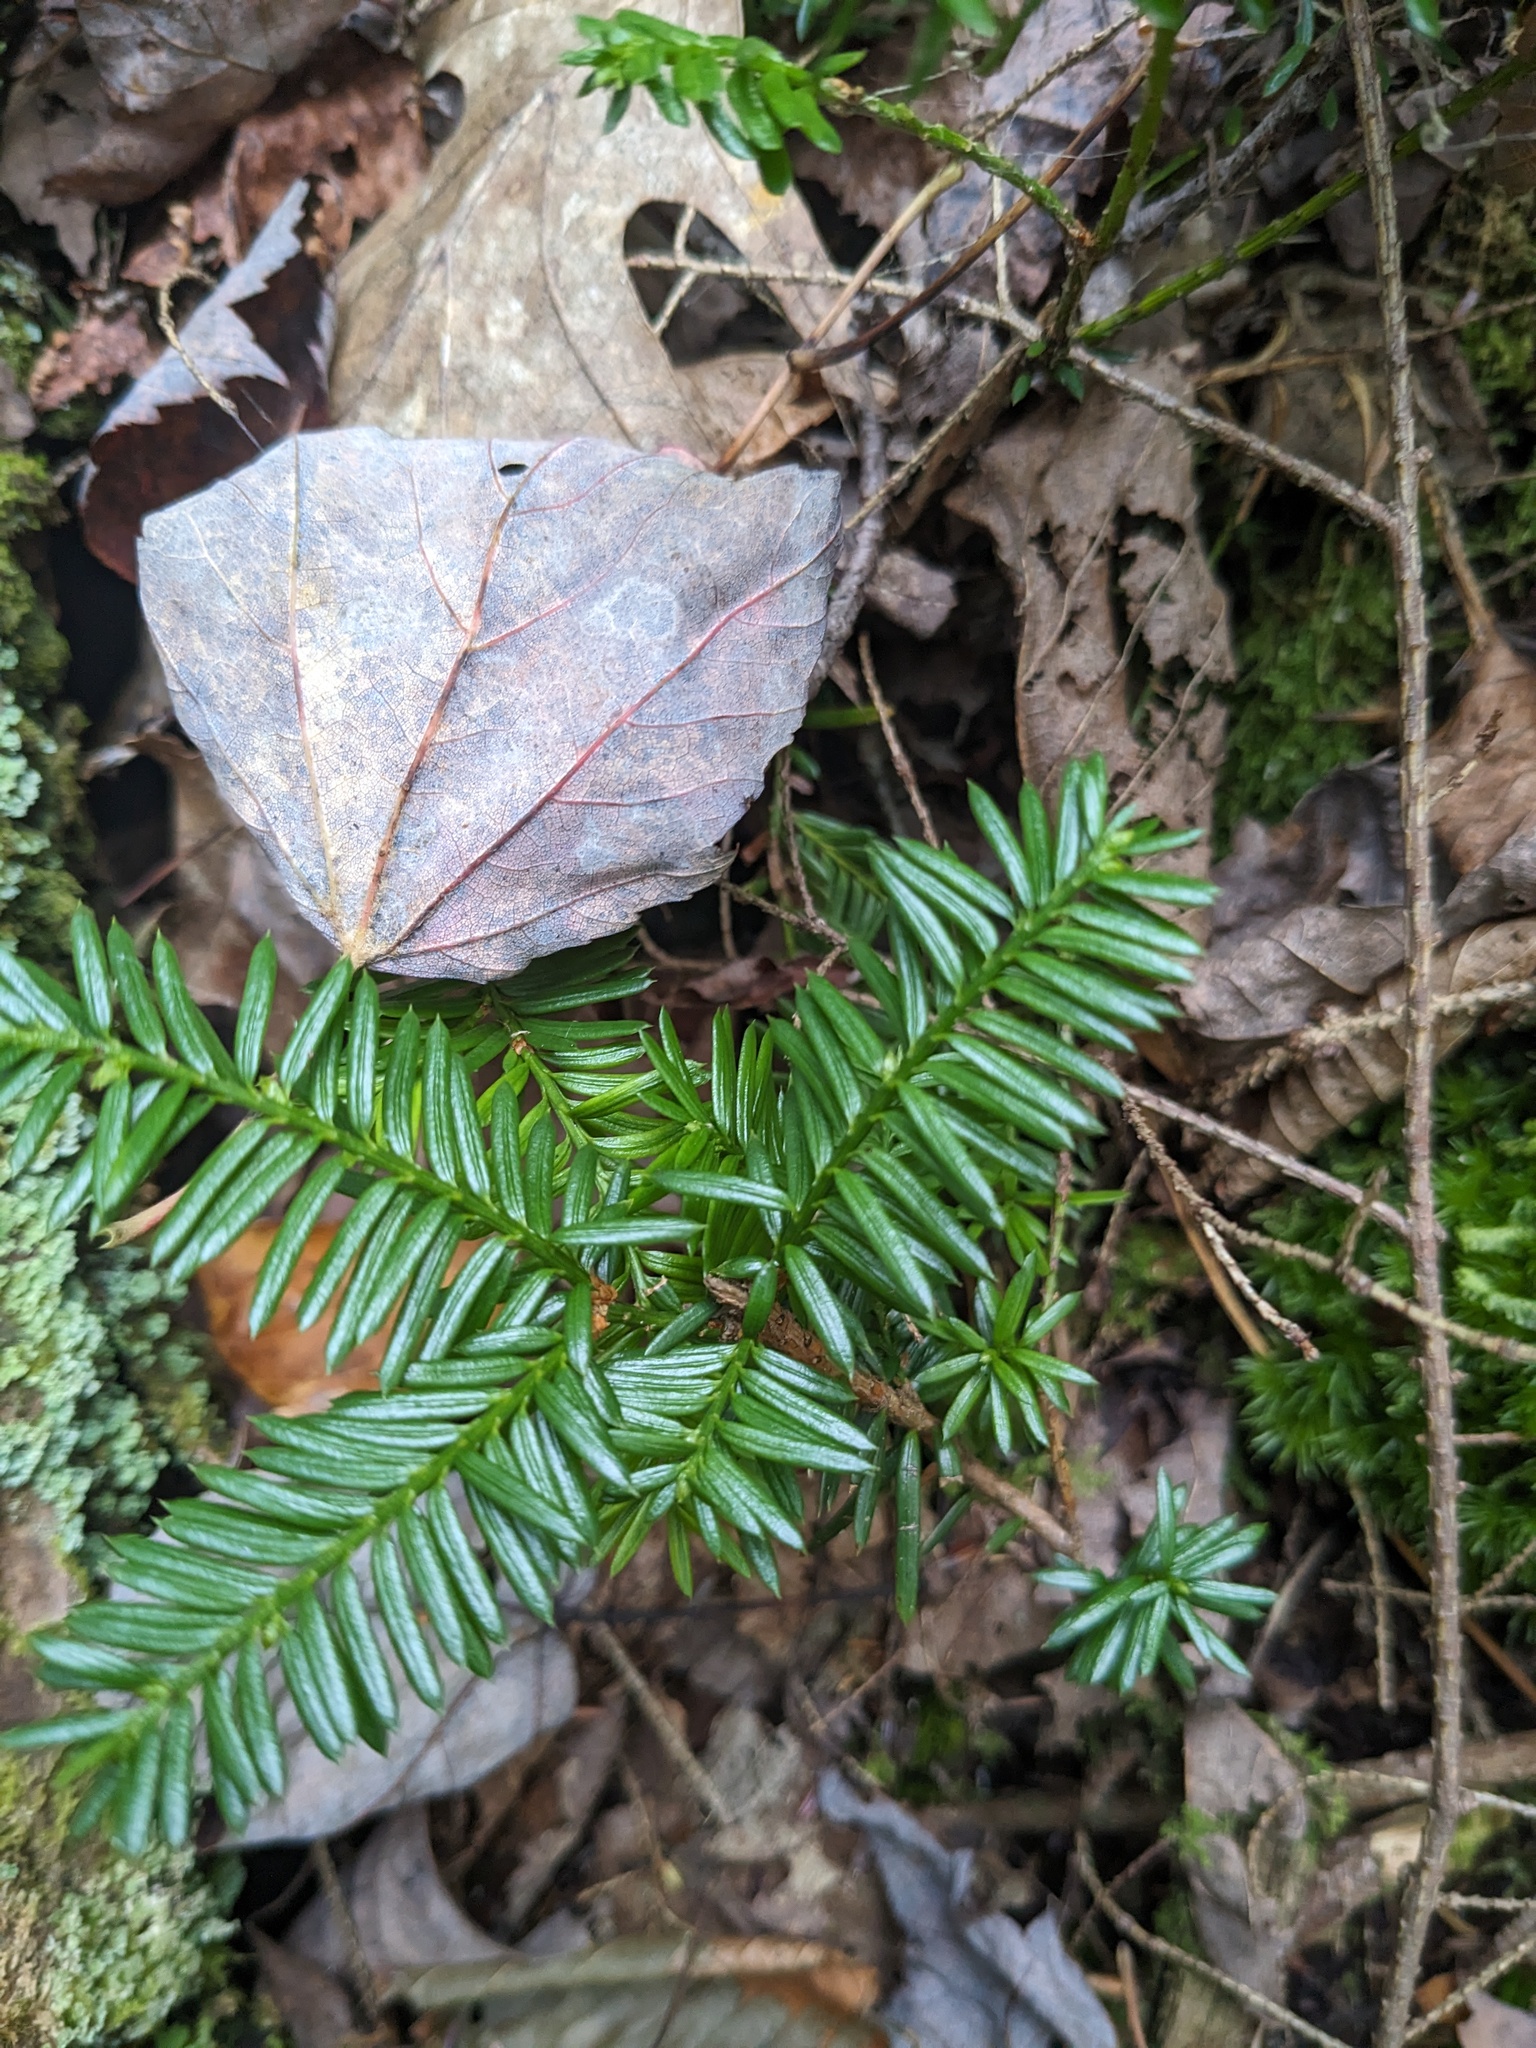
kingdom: Plantae
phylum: Tracheophyta
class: Pinopsida
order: Pinales
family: Taxaceae
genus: Taxus
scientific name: Taxus canadensis
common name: American yew
